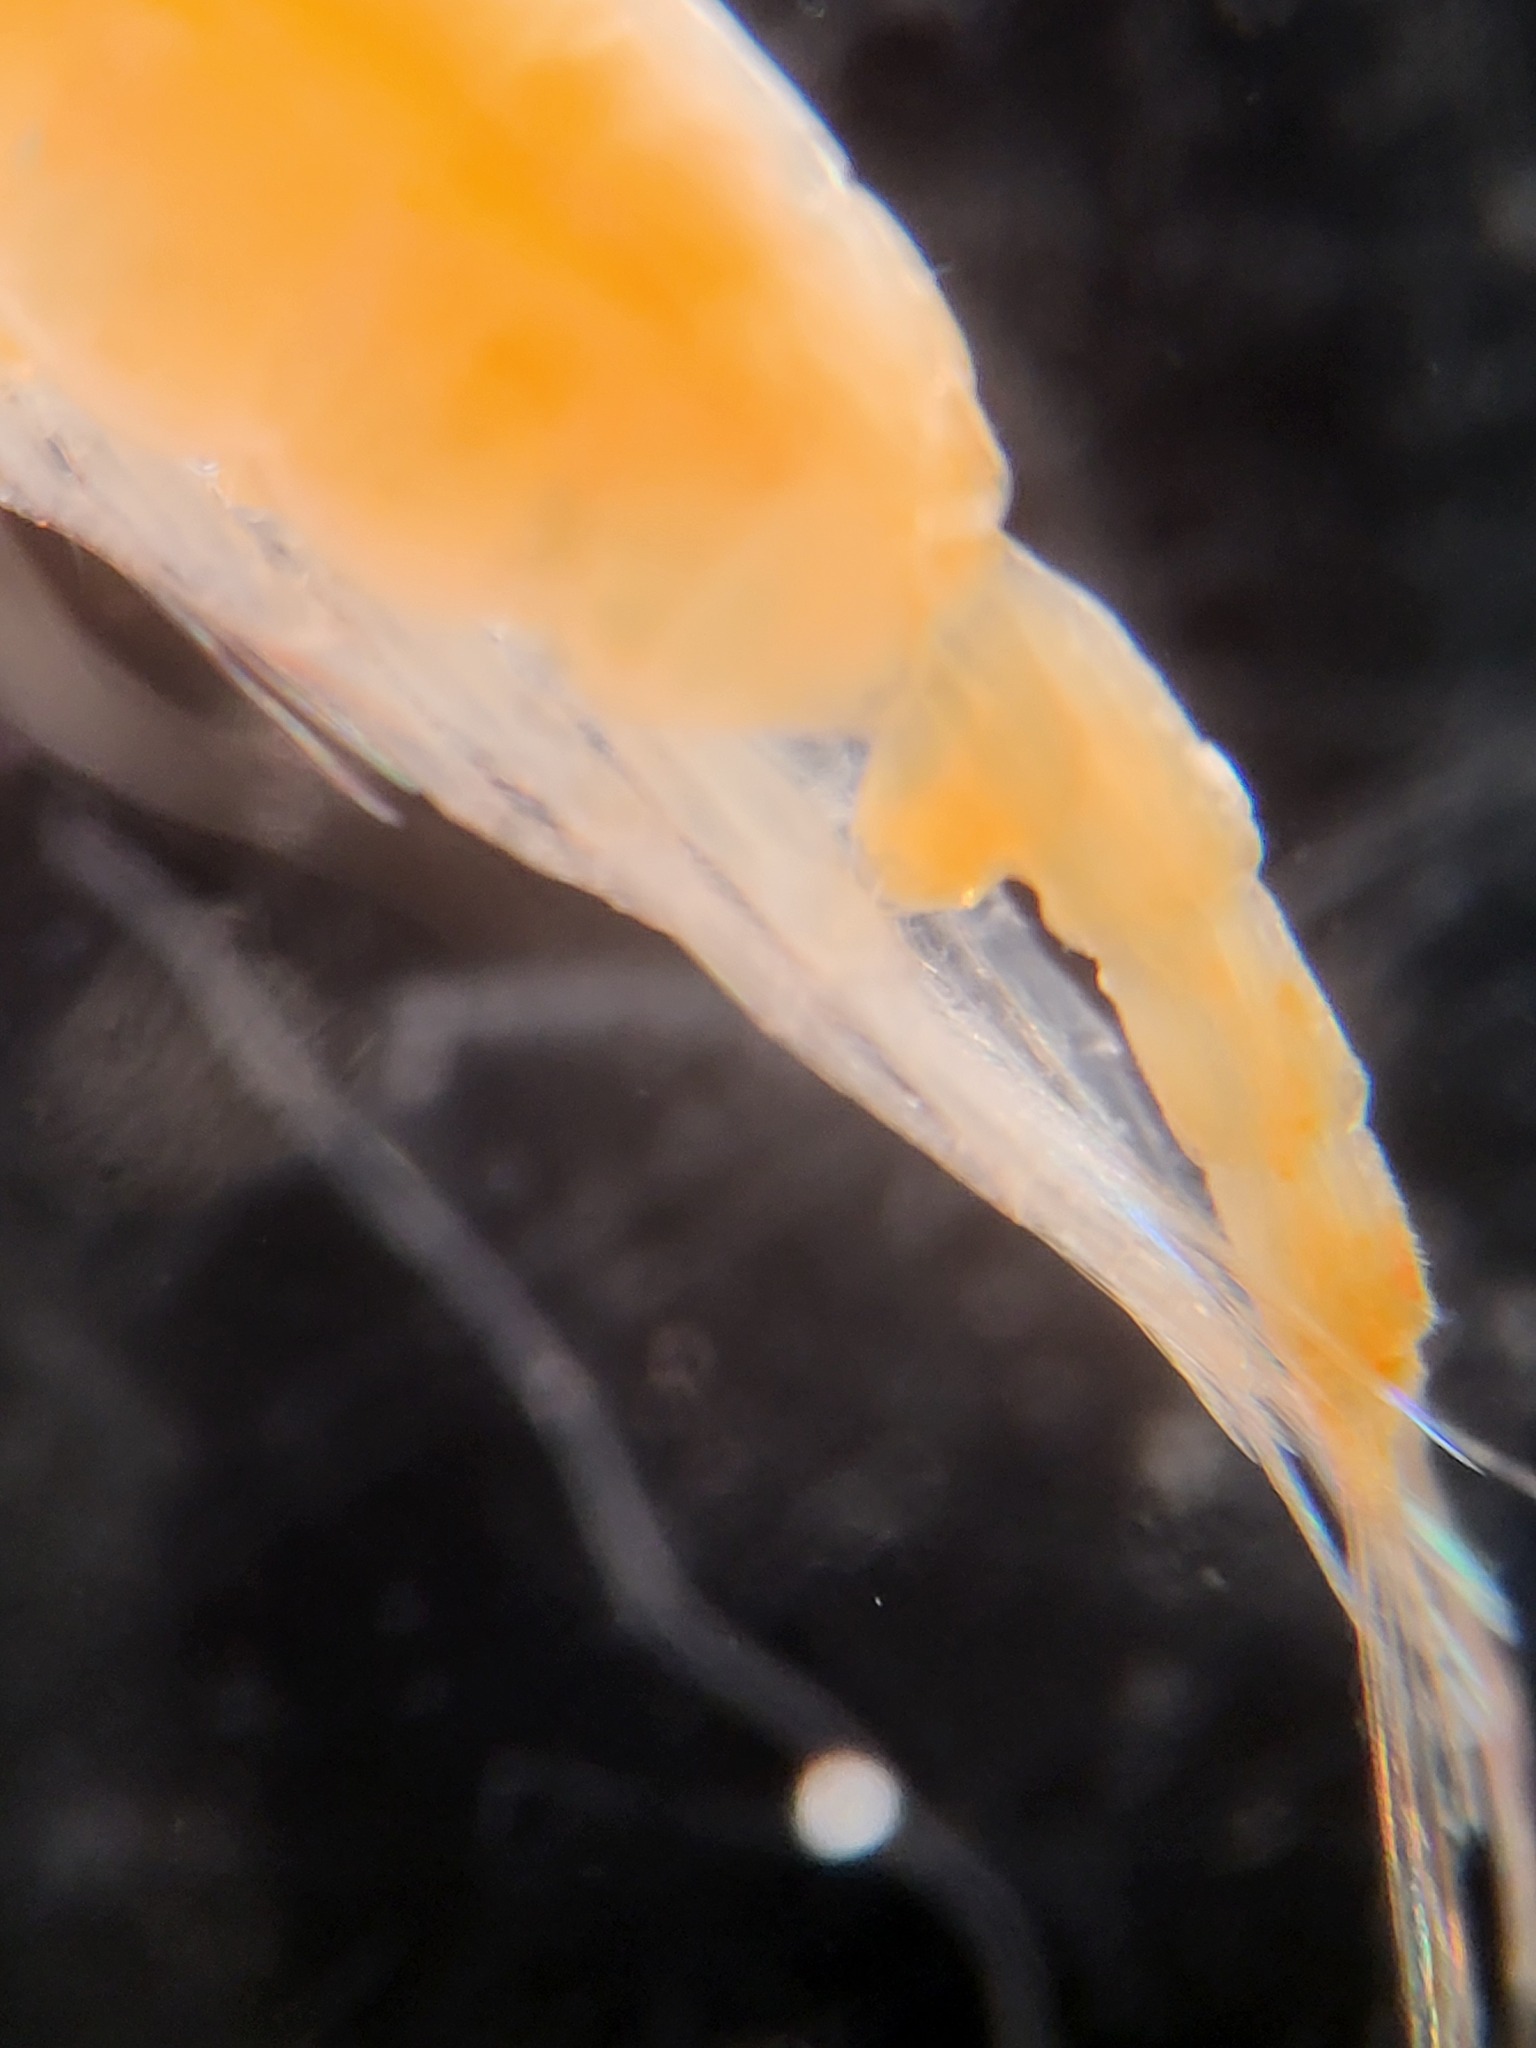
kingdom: Animalia
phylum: Arthropoda
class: Copepoda
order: Calanoida
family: Euchaetidae
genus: Paraeuchaeta
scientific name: Paraeuchaeta glacialis
